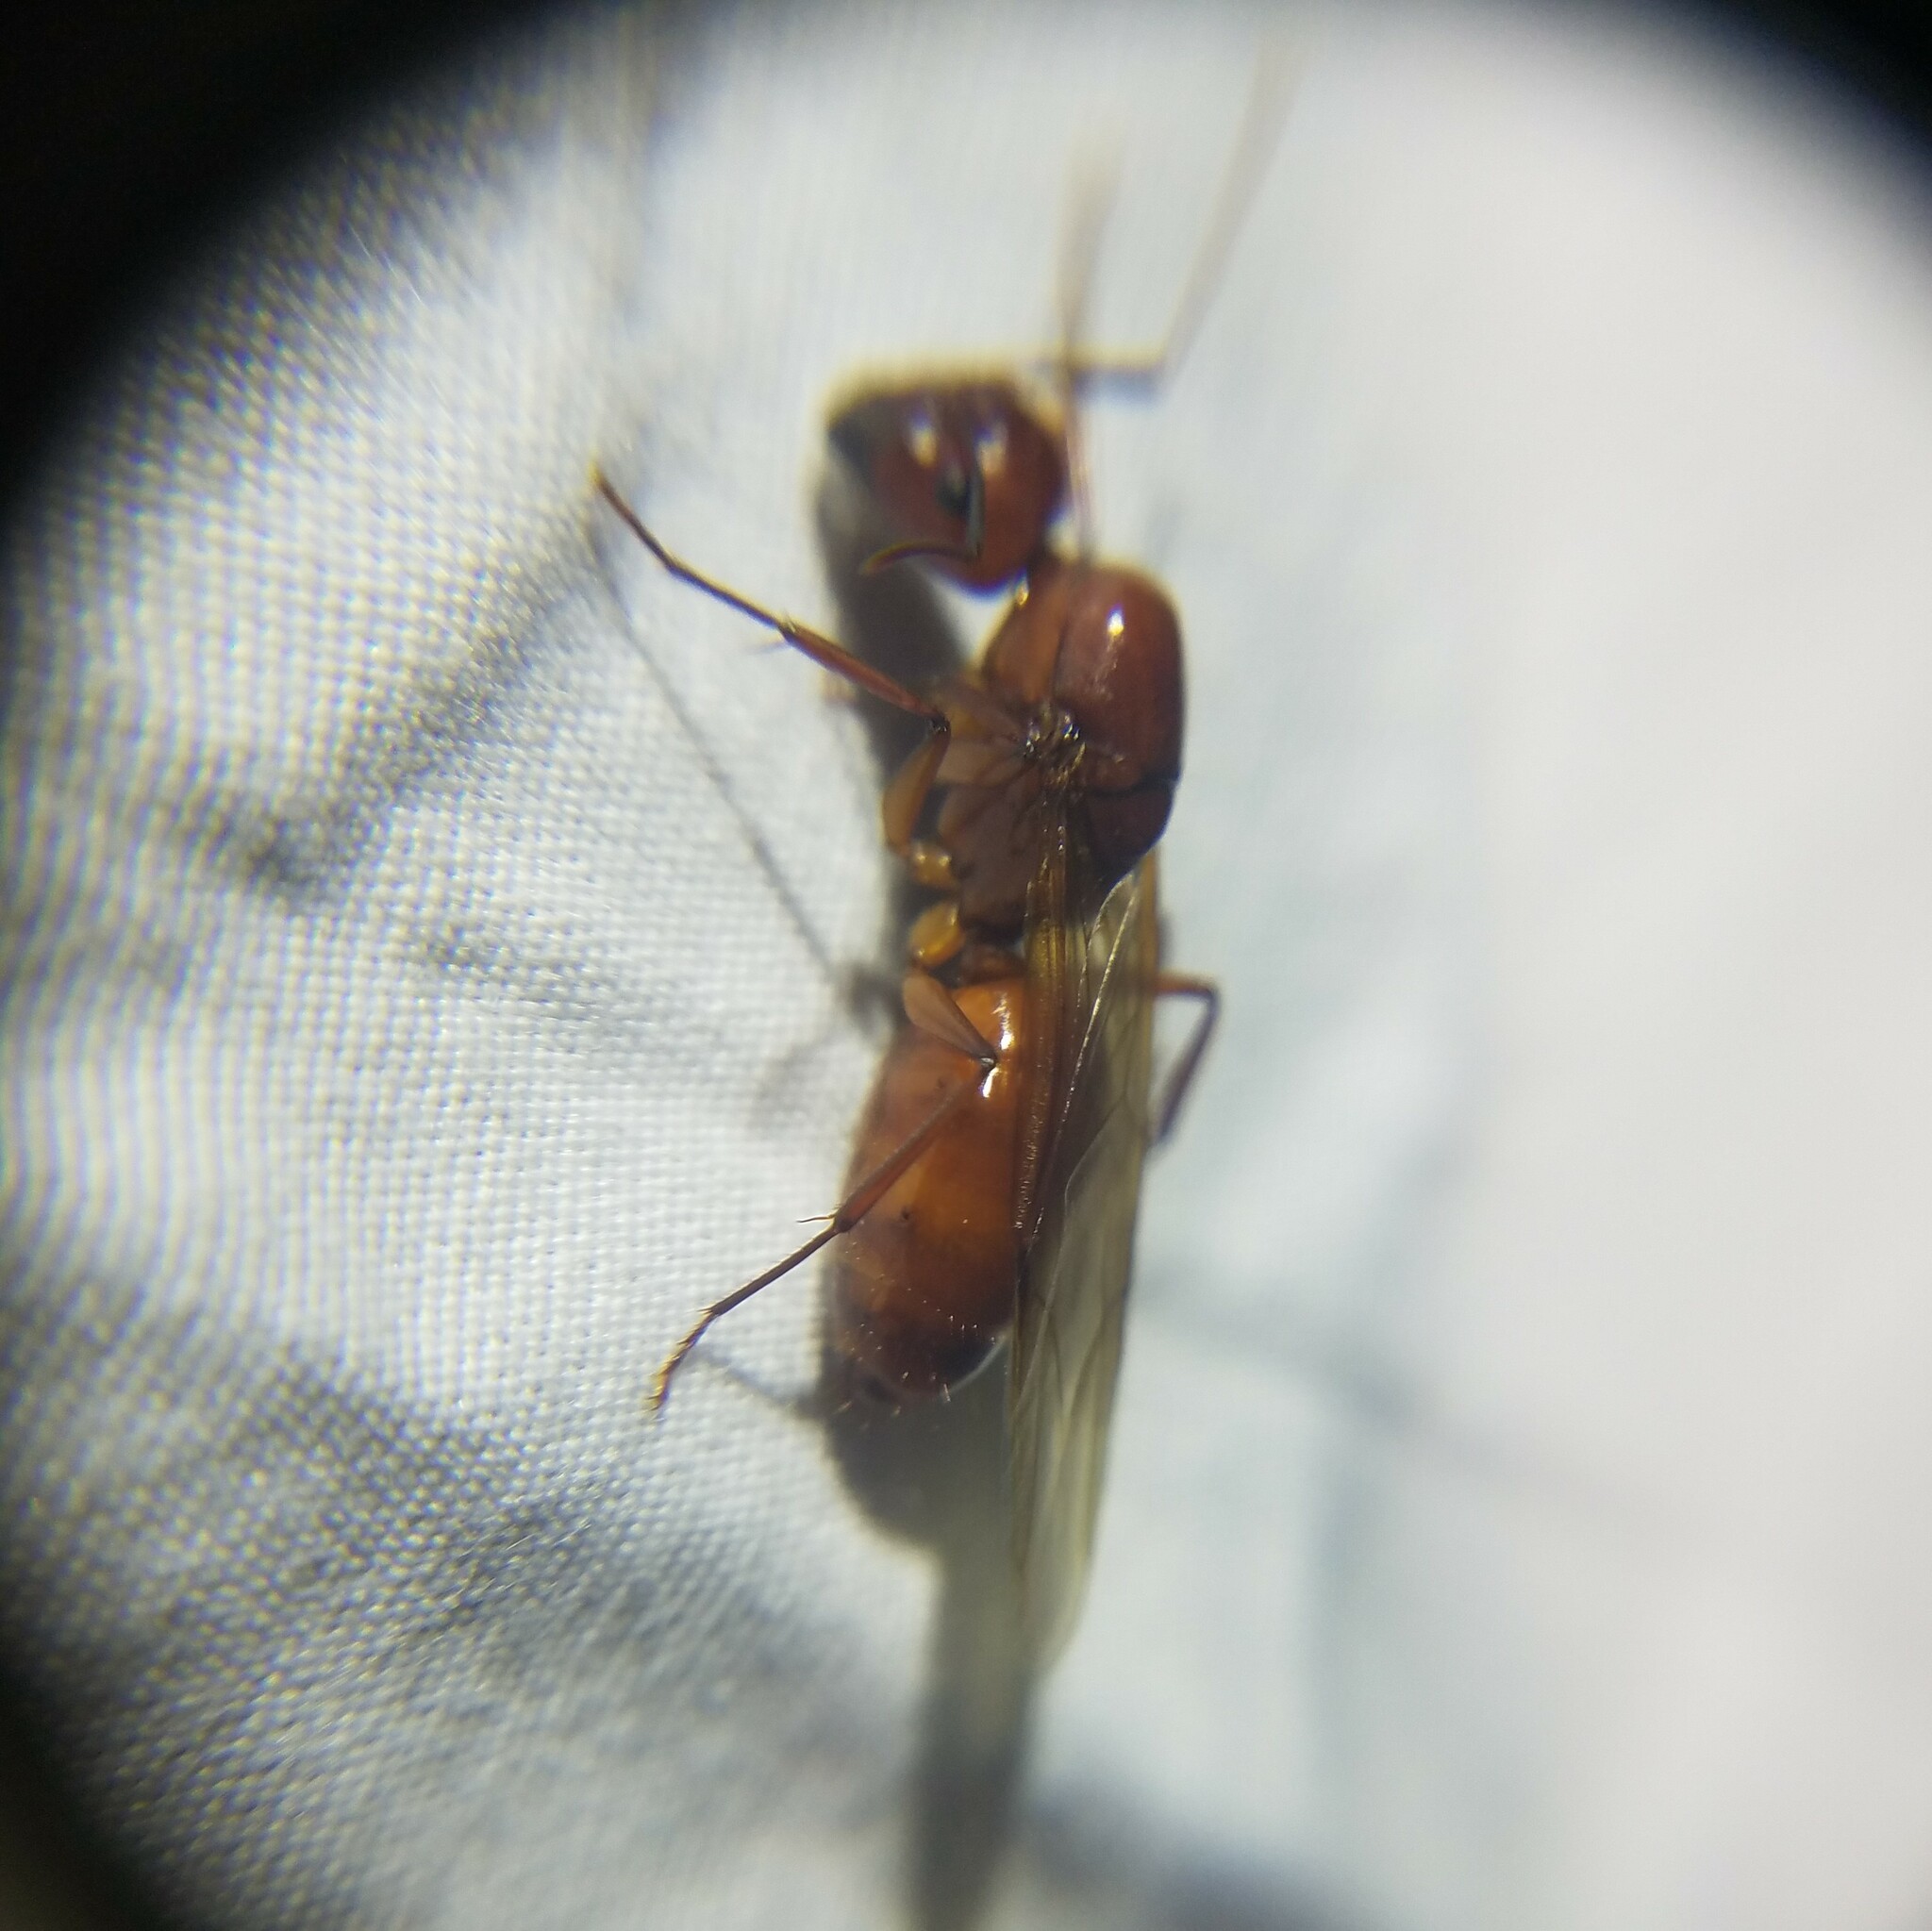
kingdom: Animalia
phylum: Arthropoda
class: Insecta
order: Hymenoptera
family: Formicidae
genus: Camponotus
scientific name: Camponotus castaneus
